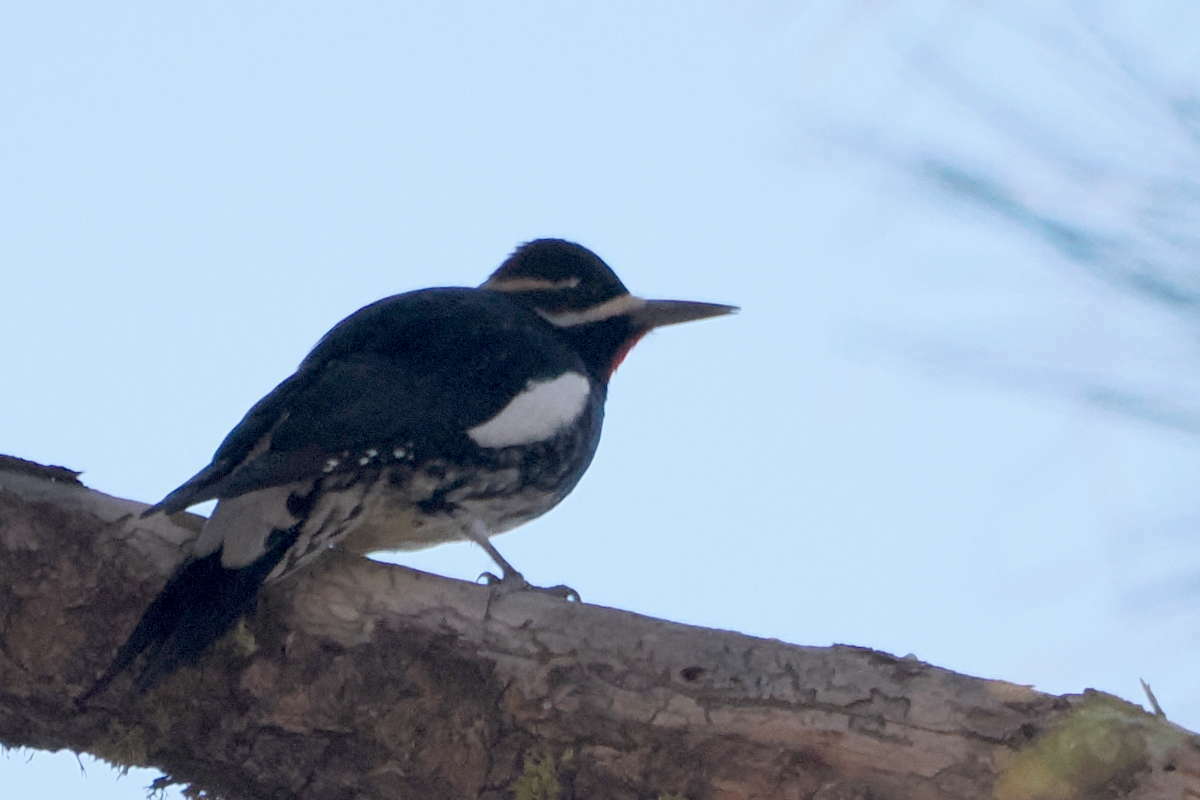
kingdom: Animalia
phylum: Chordata
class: Aves
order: Piciformes
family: Picidae
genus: Sphyrapicus
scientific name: Sphyrapicus thyroideus
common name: Williamson's sapsucker
